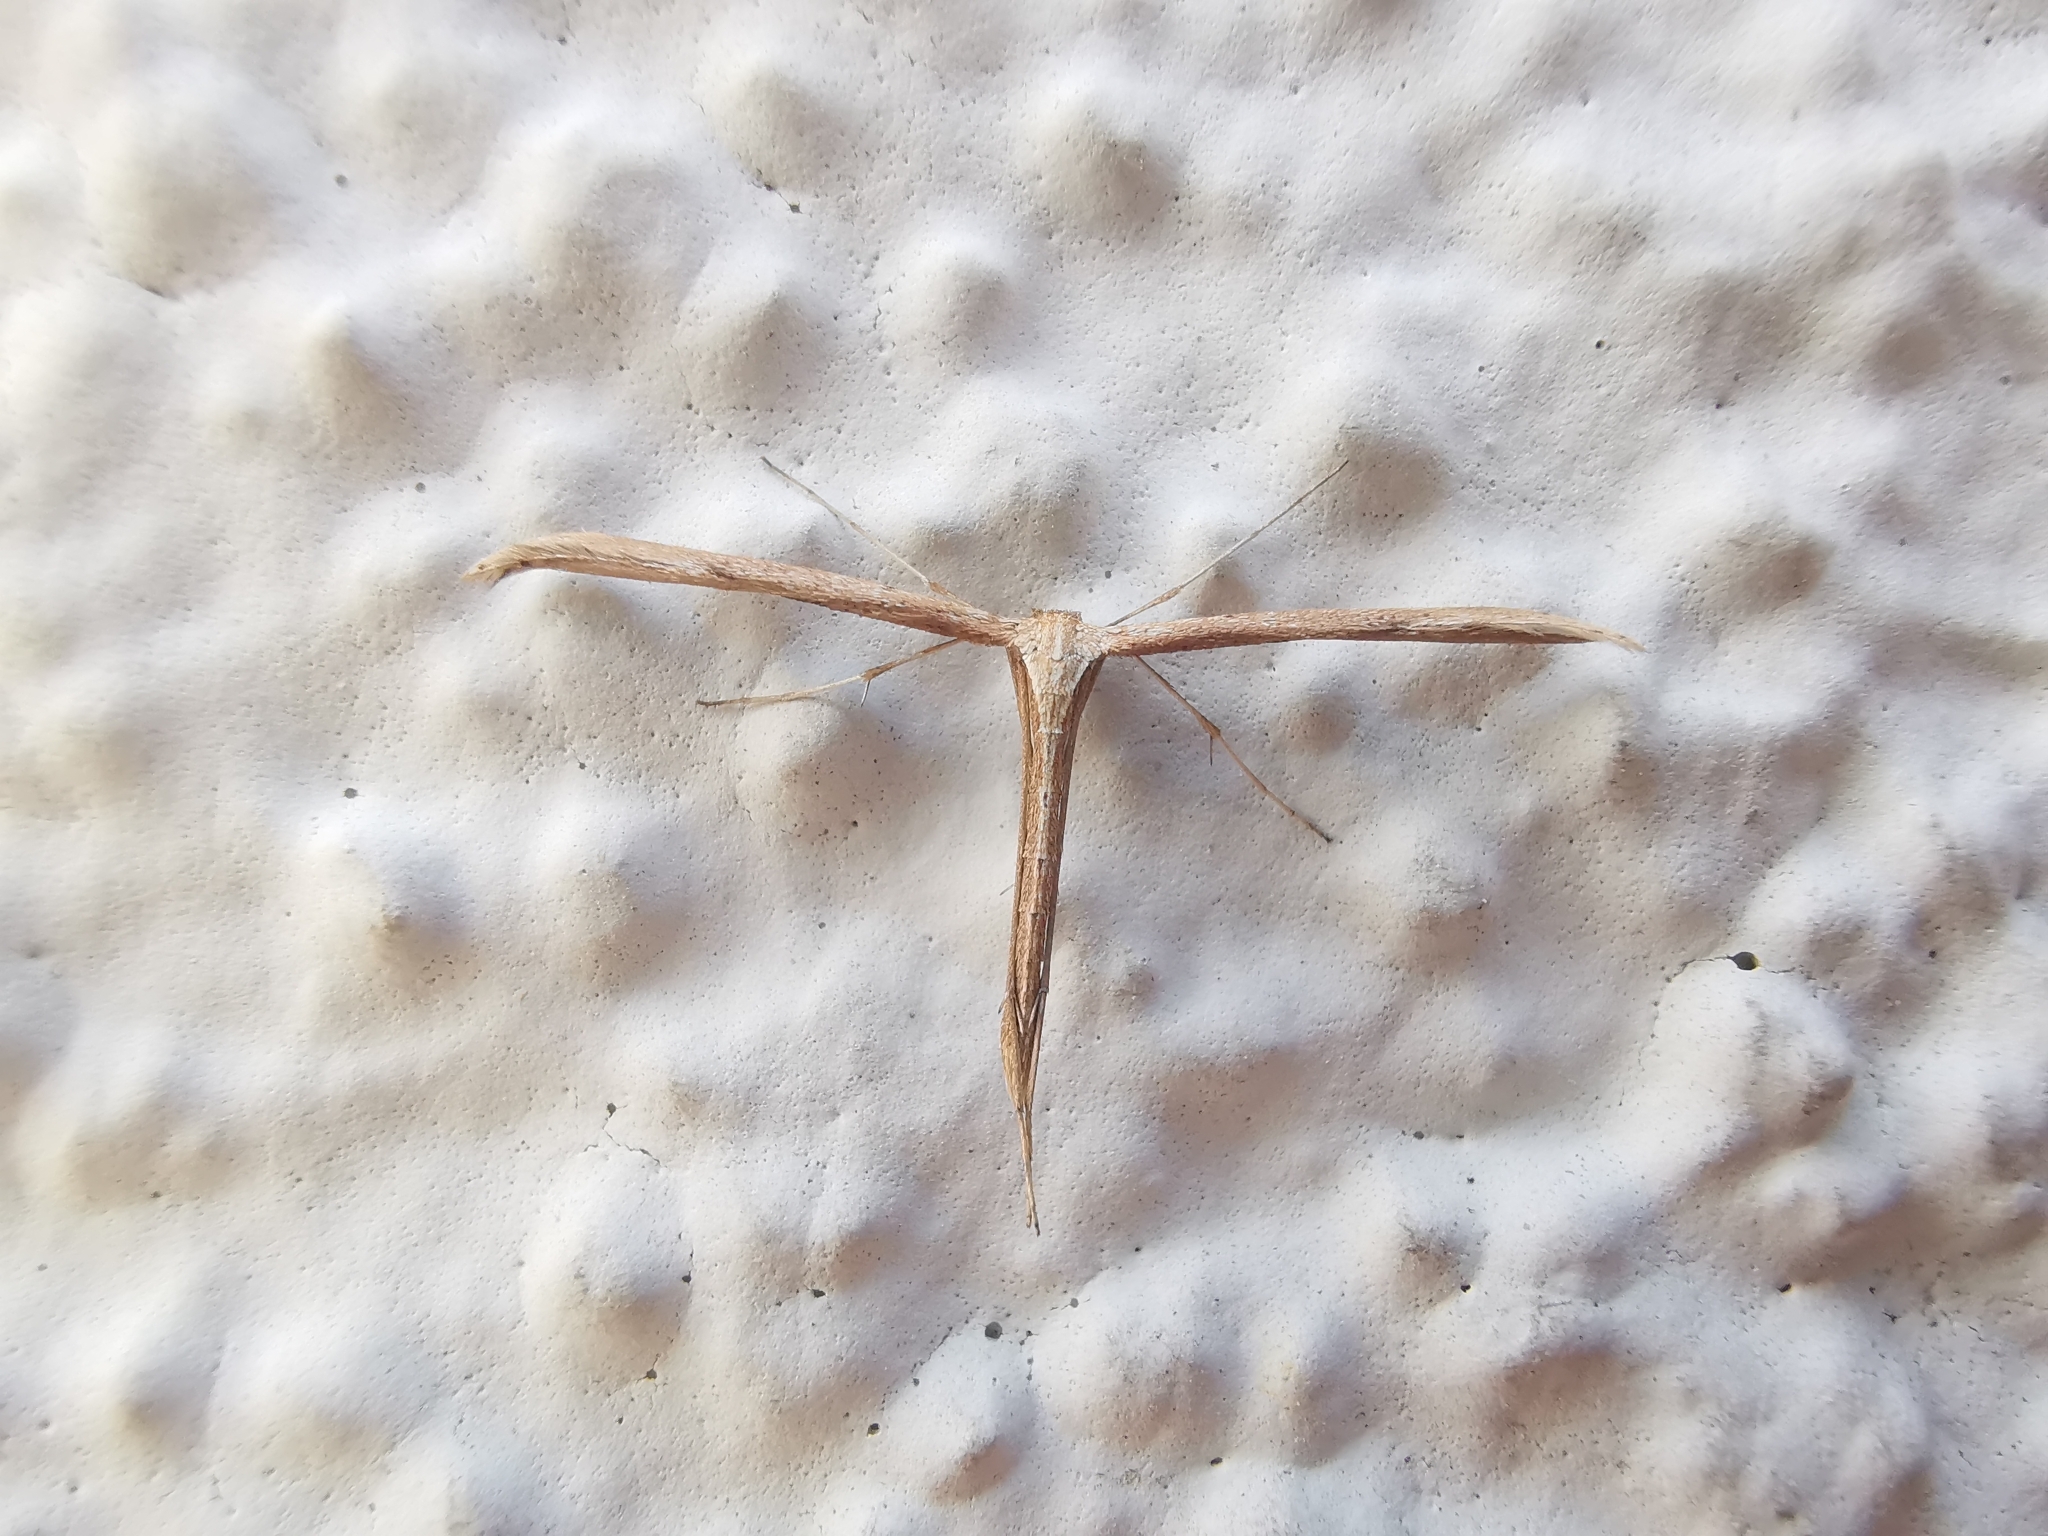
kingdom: Animalia
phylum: Arthropoda
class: Insecta
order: Lepidoptera
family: Pterophoridae
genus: Emmelina
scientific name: Emmelina monodactyla
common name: Common plume
